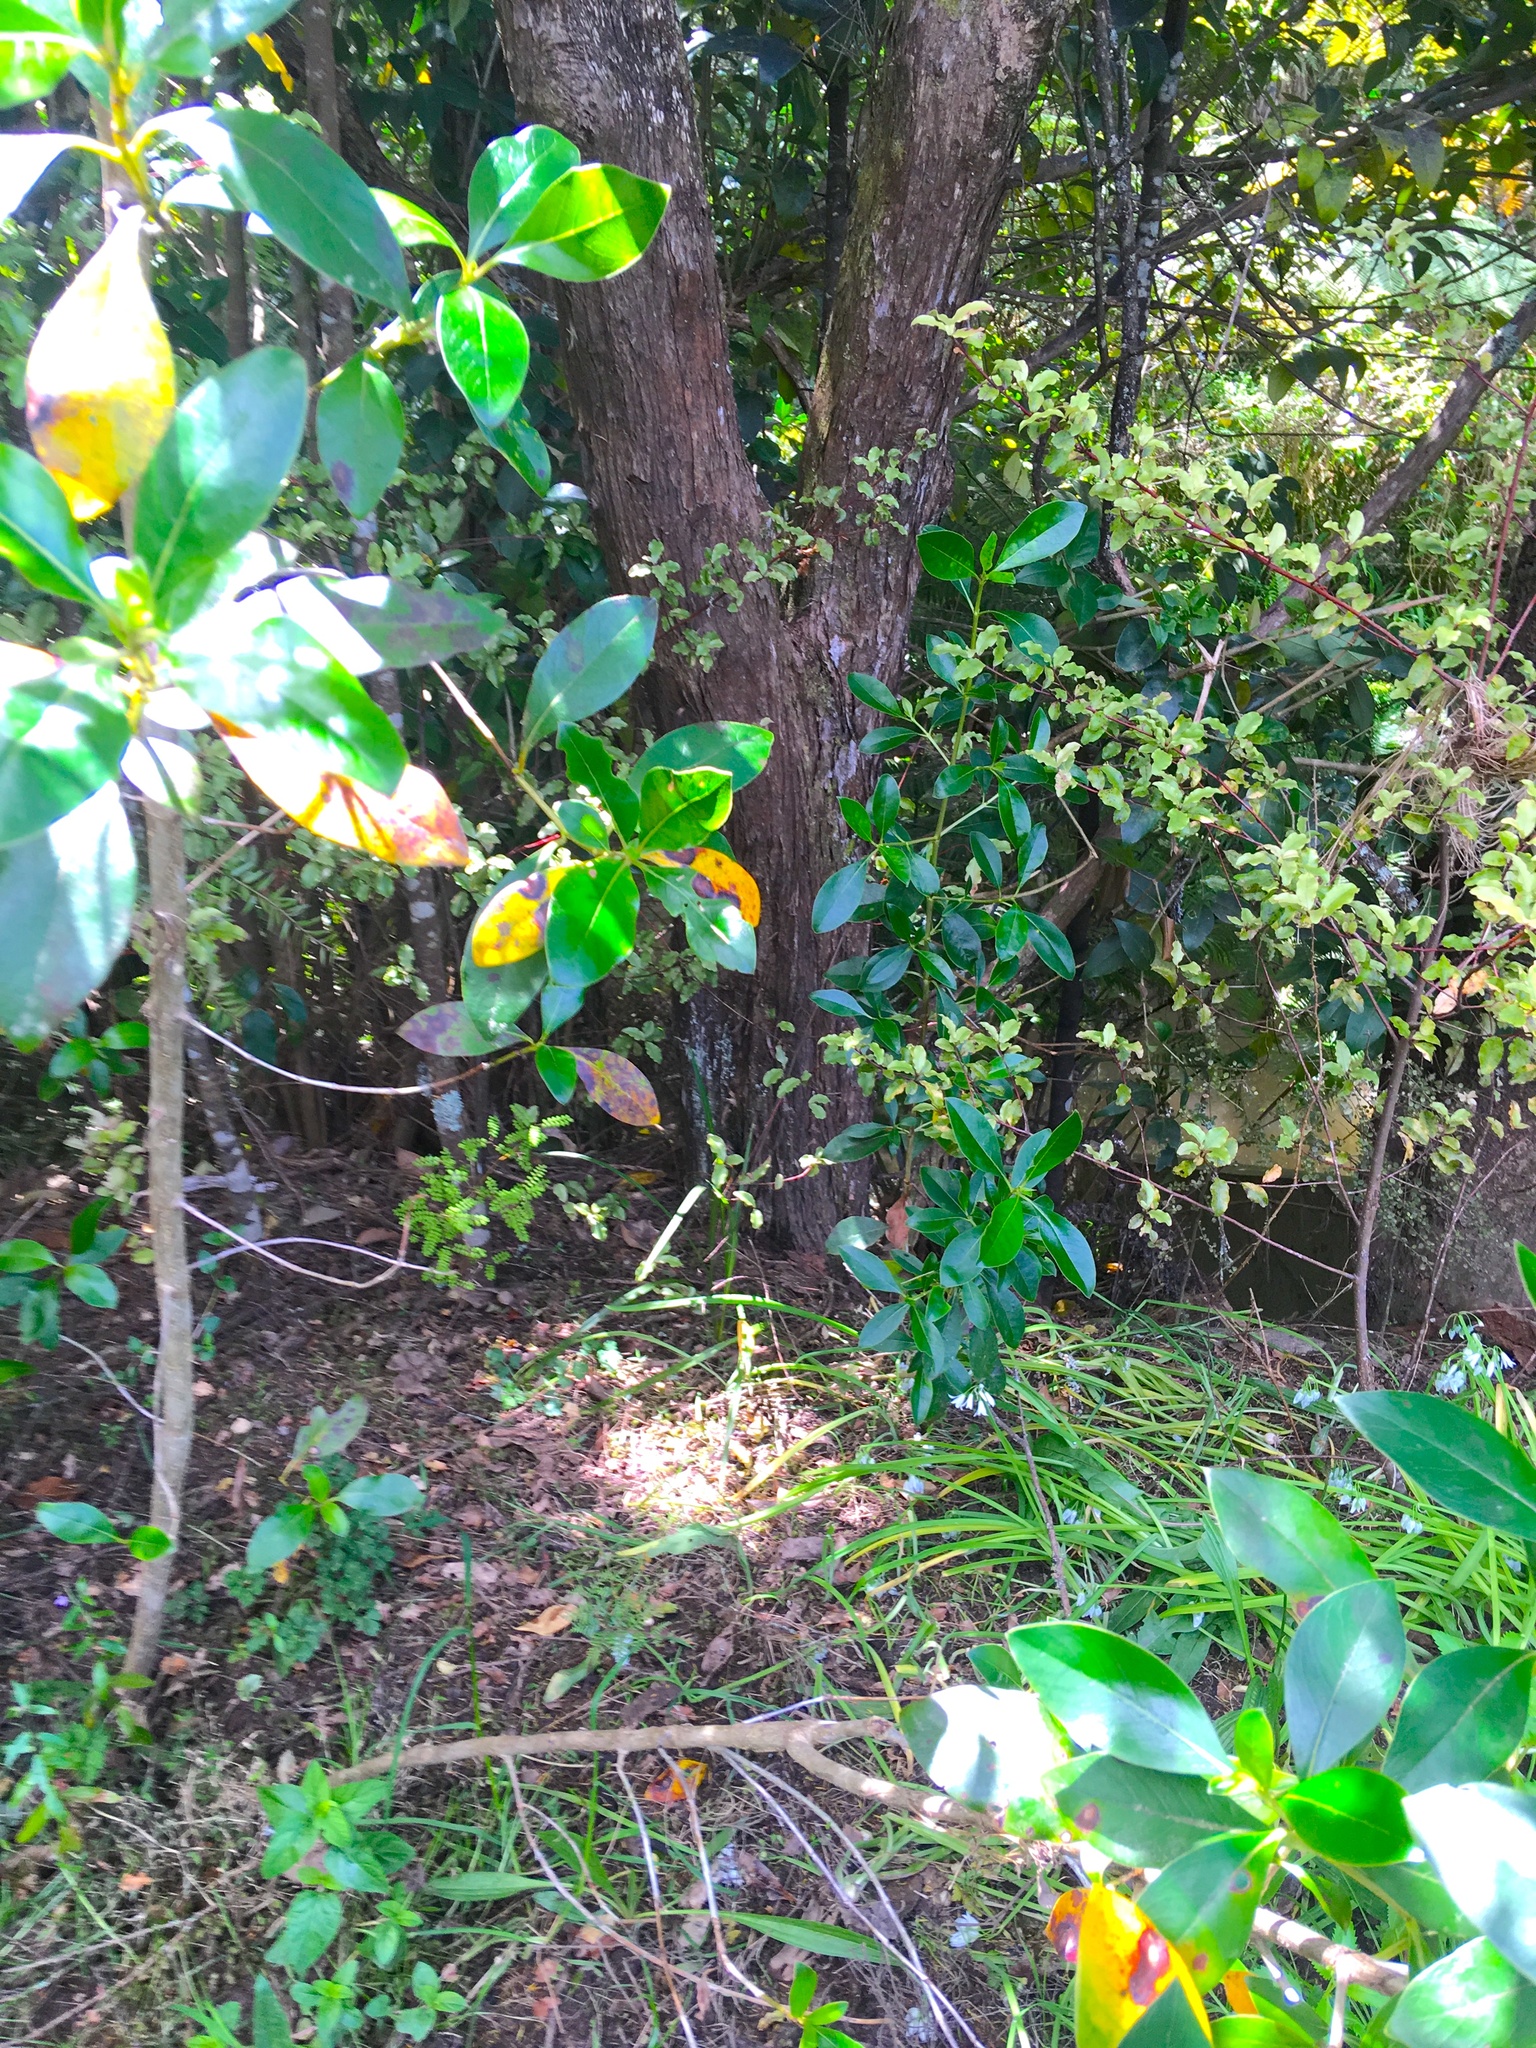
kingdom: Plantae
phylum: Tracheophyta
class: Polypodiopsida
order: Polypodiales
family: Dennstaedtiaceae
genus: Pteridium
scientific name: Pteridium esculentum
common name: Bracken fern
